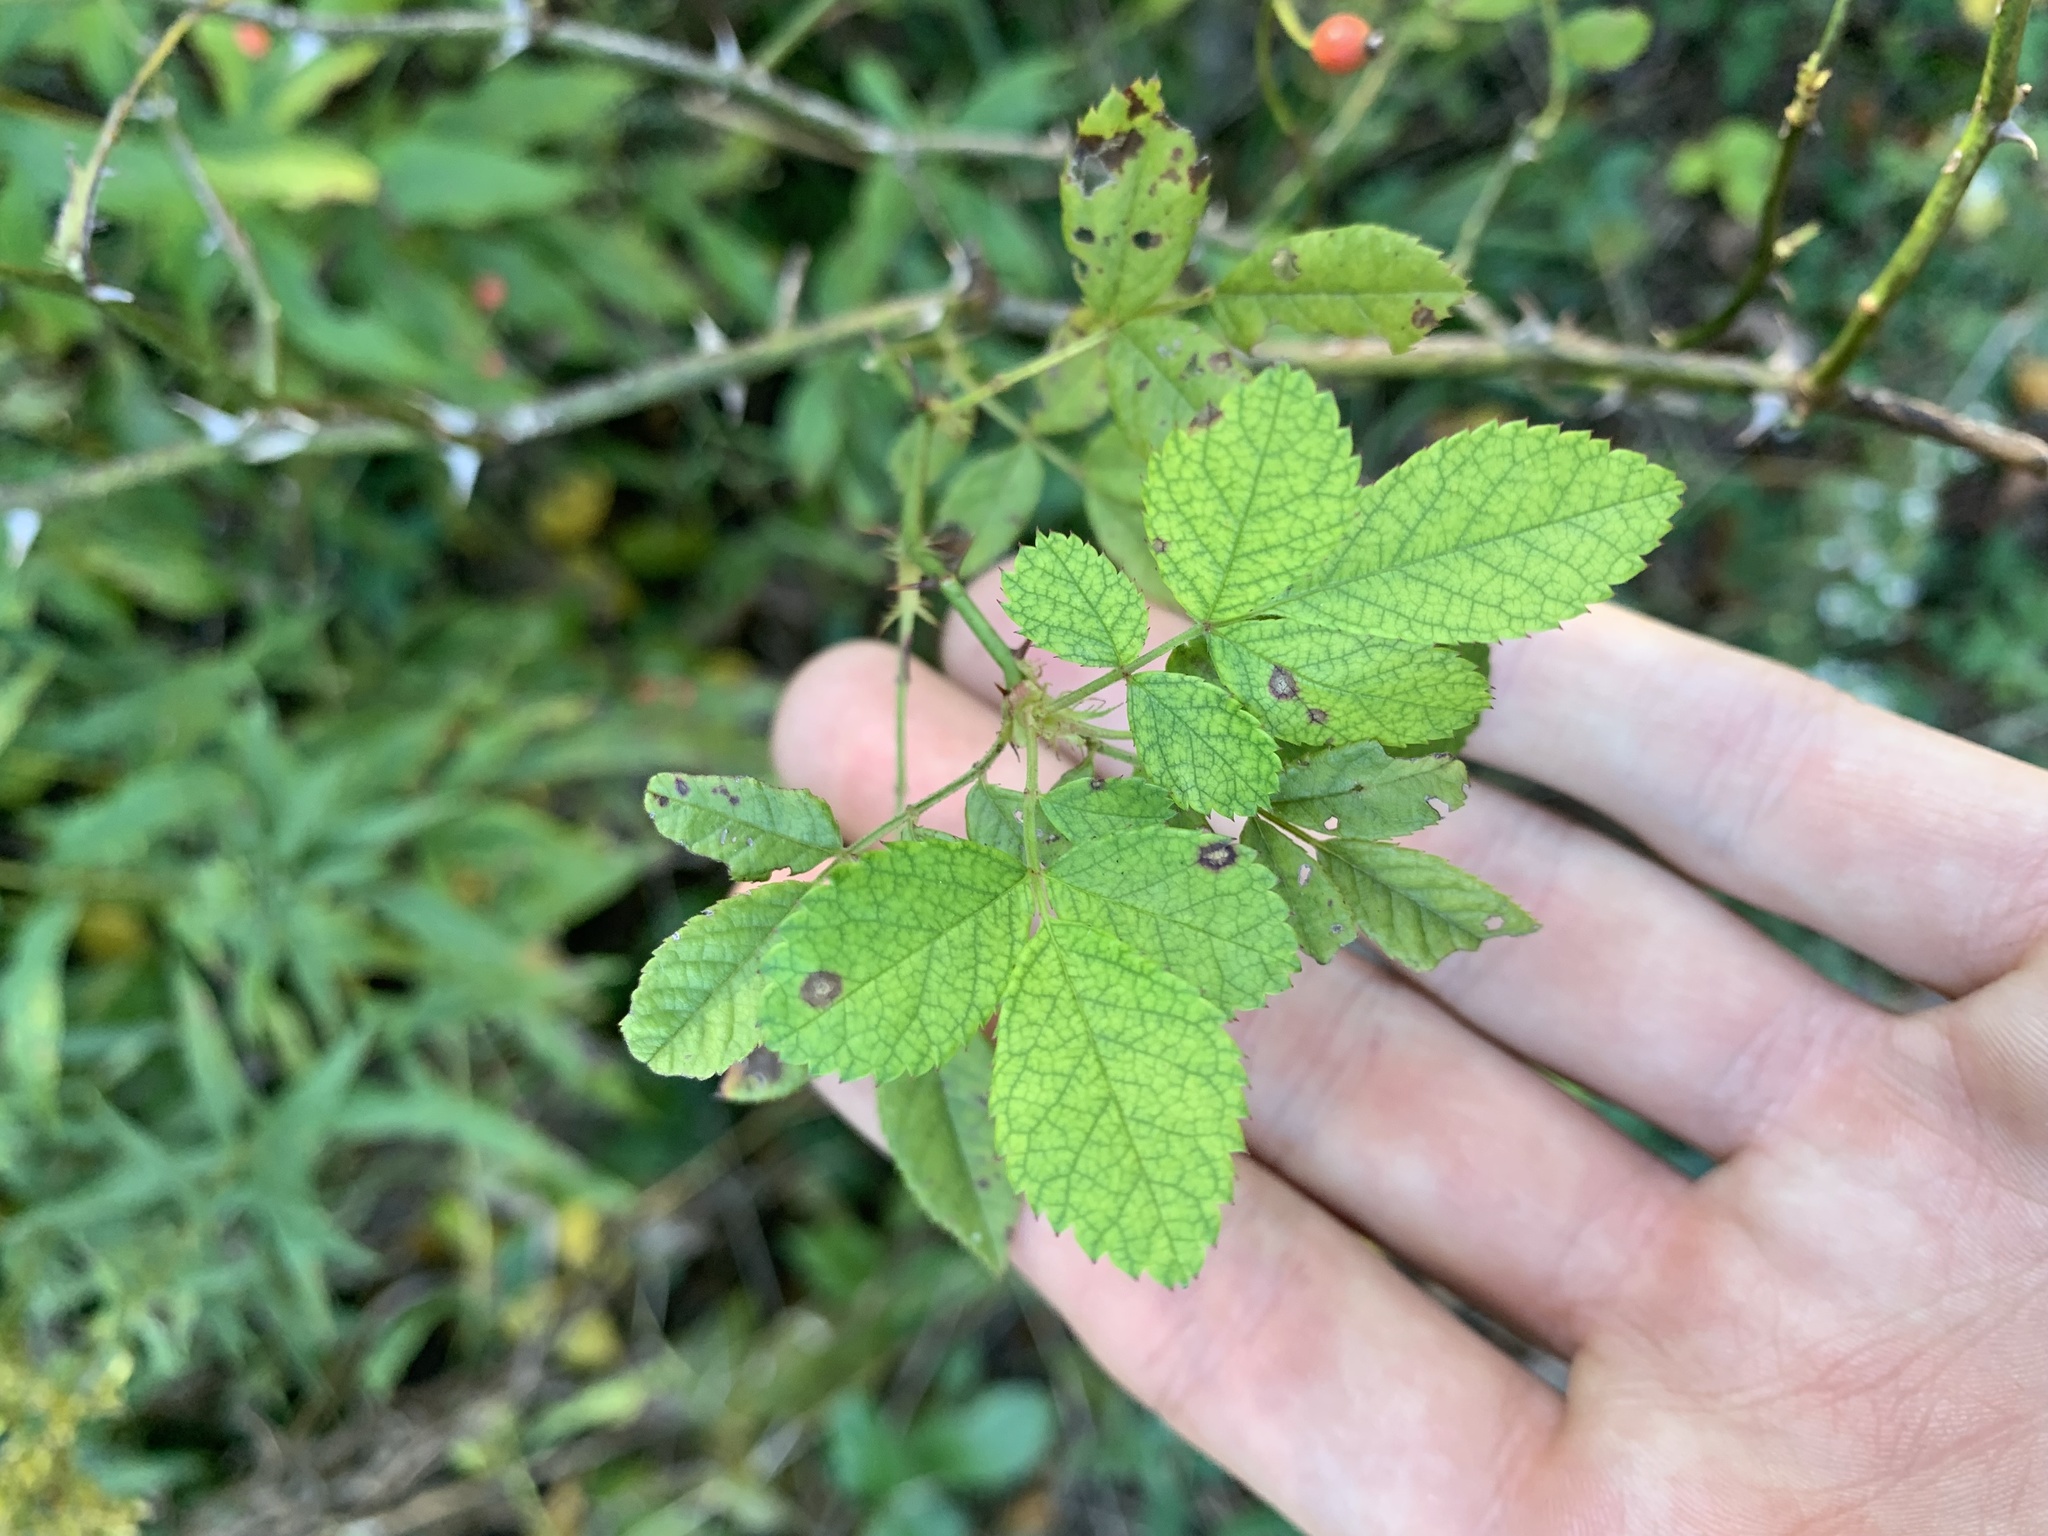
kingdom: Plantae
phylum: Tracheophyta
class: Magnoliopsida
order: Rosales
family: Rosaceae
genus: Rosa
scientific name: Rosa multiflora
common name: Multiflora rose
